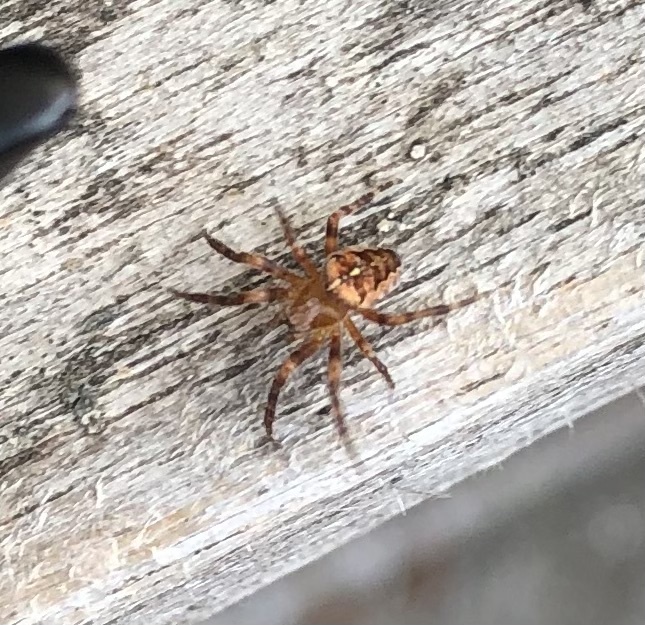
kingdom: Animalia
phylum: Arthropoda
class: Arachnida
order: Araneae
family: Araneidae
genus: Araneus
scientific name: Araneus diadematus
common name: Cross orbweaver
